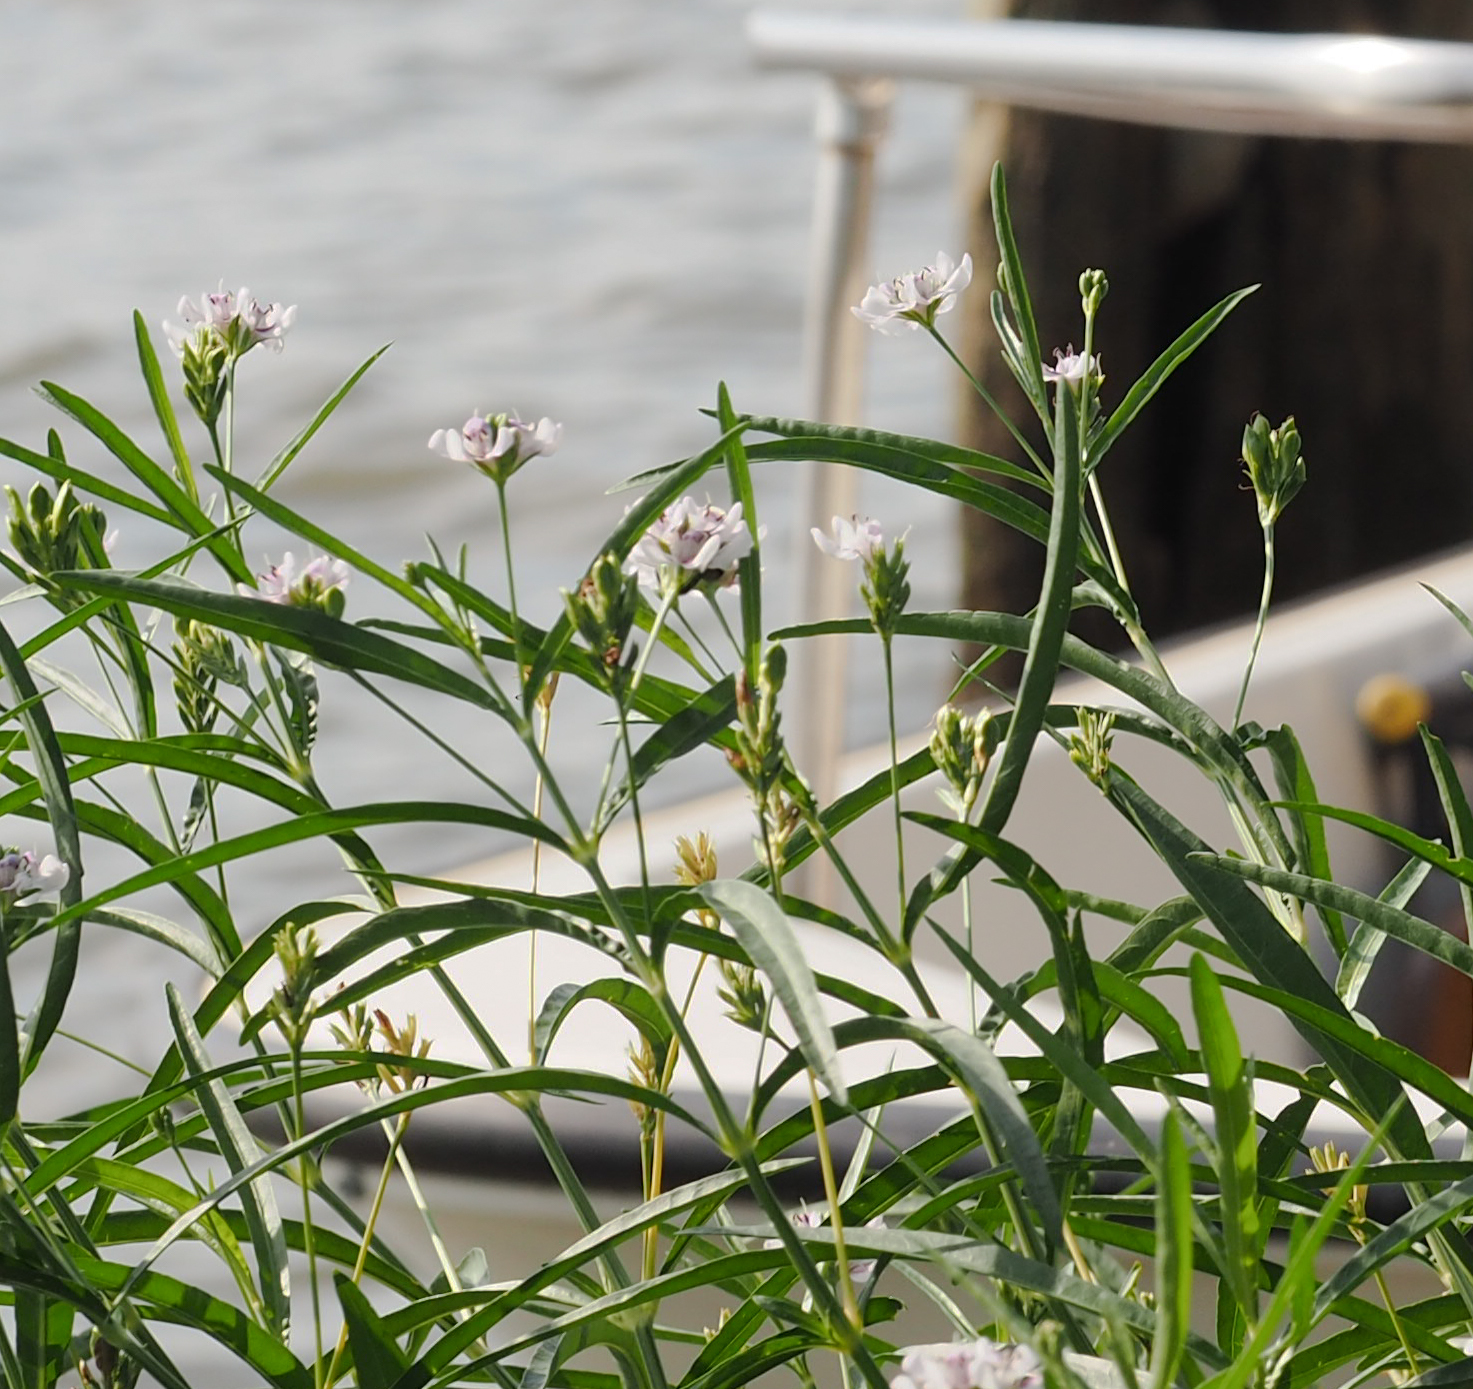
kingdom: Plantae
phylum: Tracheophyta
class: Magnoliopsida
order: Lamiales
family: Acanthaceae
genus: Dianthera
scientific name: Dianthera americana
